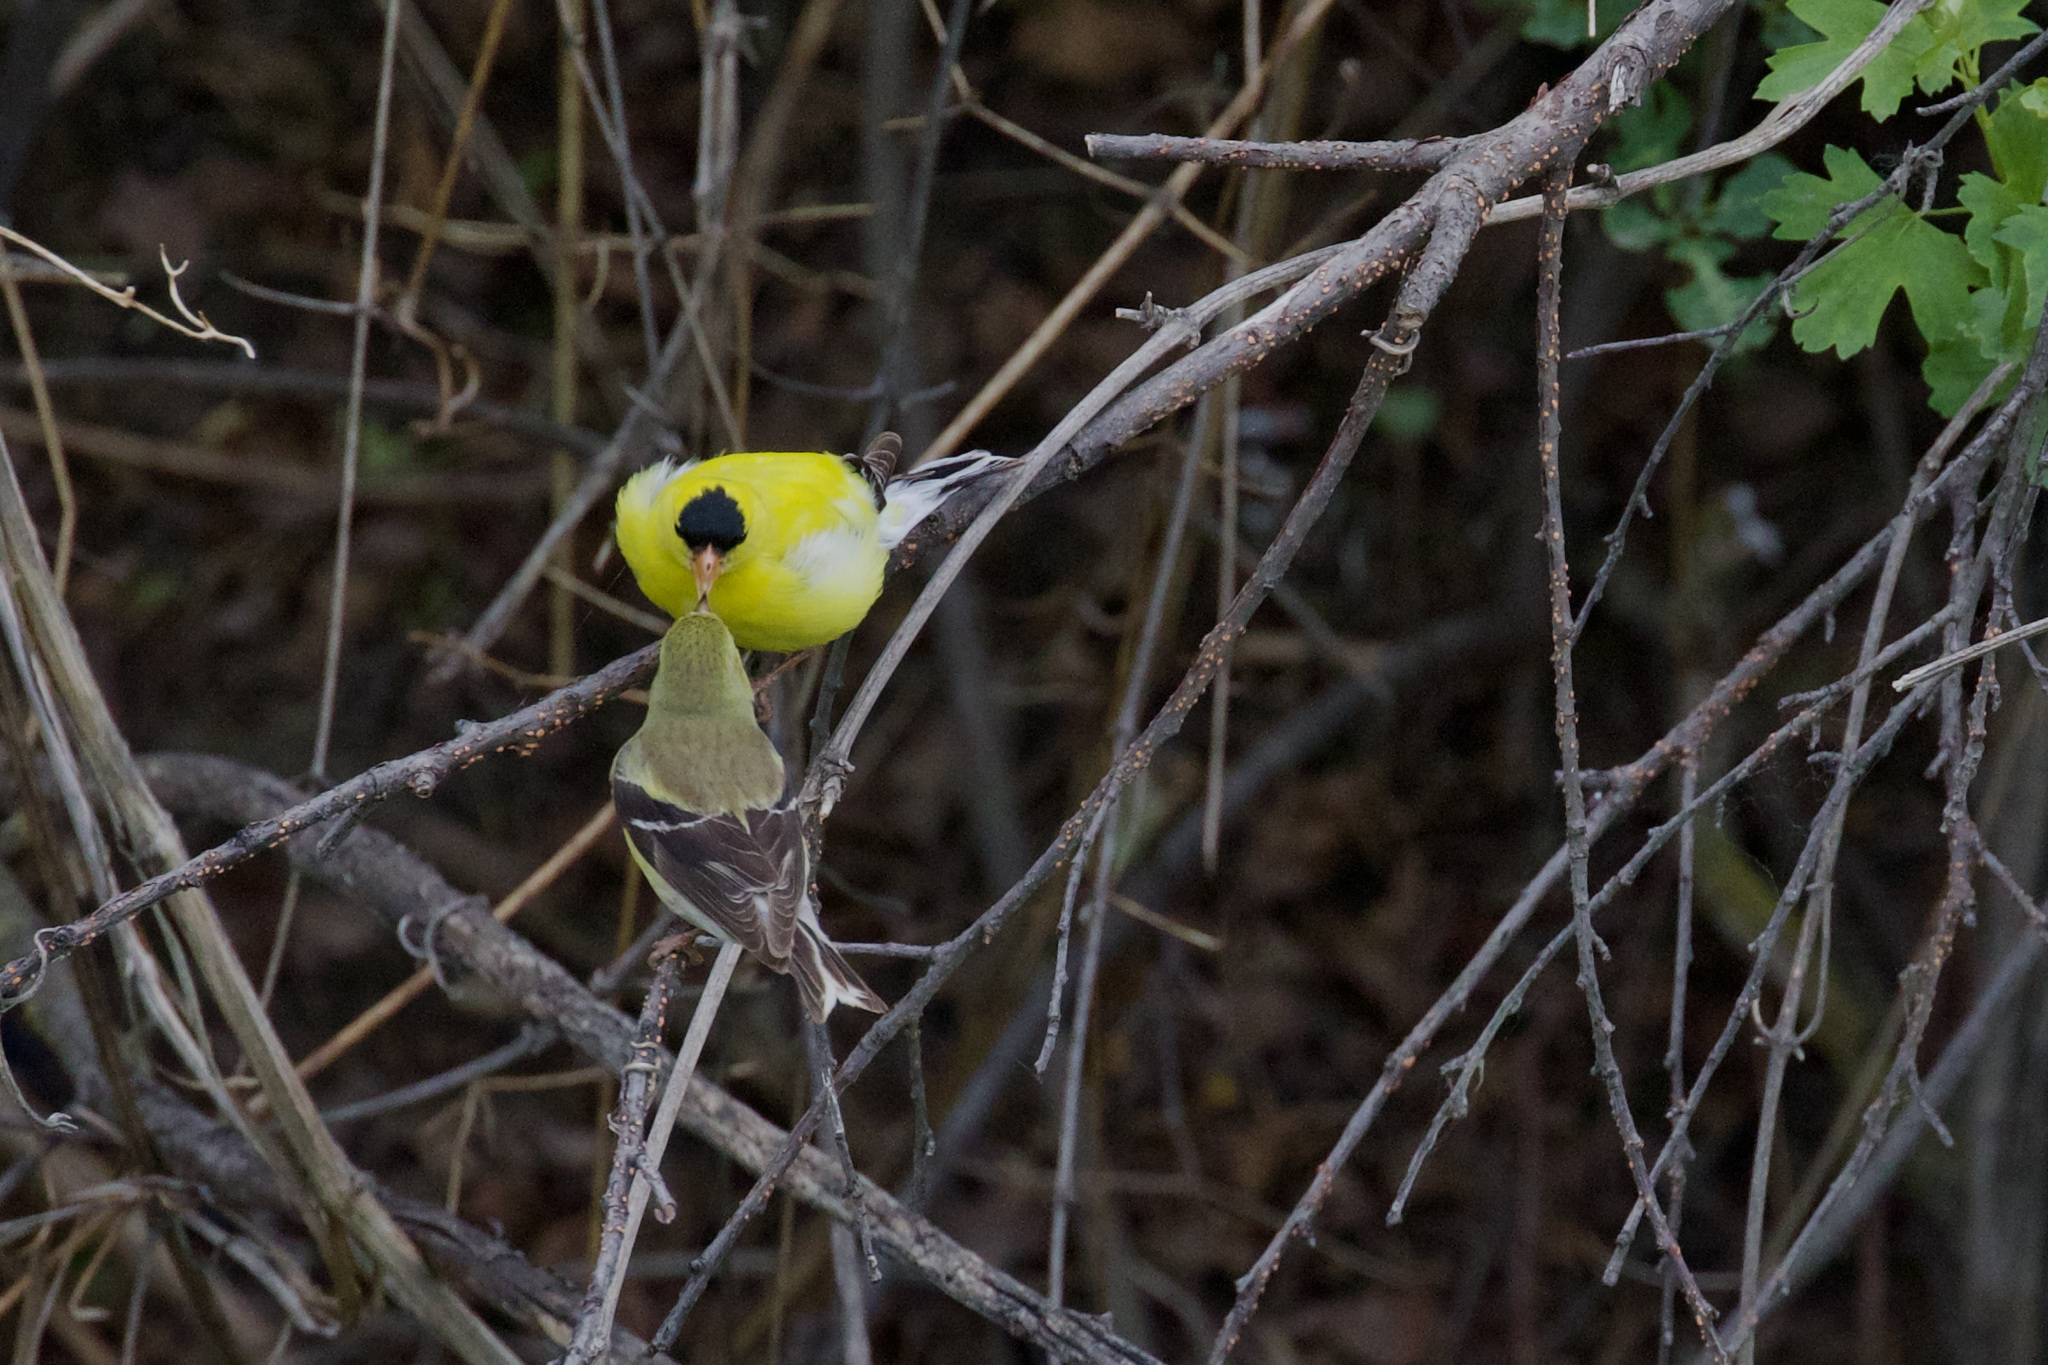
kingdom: Animalia
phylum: Chordata
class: Aves
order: Passeriformes
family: Fringillidae
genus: Spinus
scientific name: Spinus tristis
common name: American goldfinch
